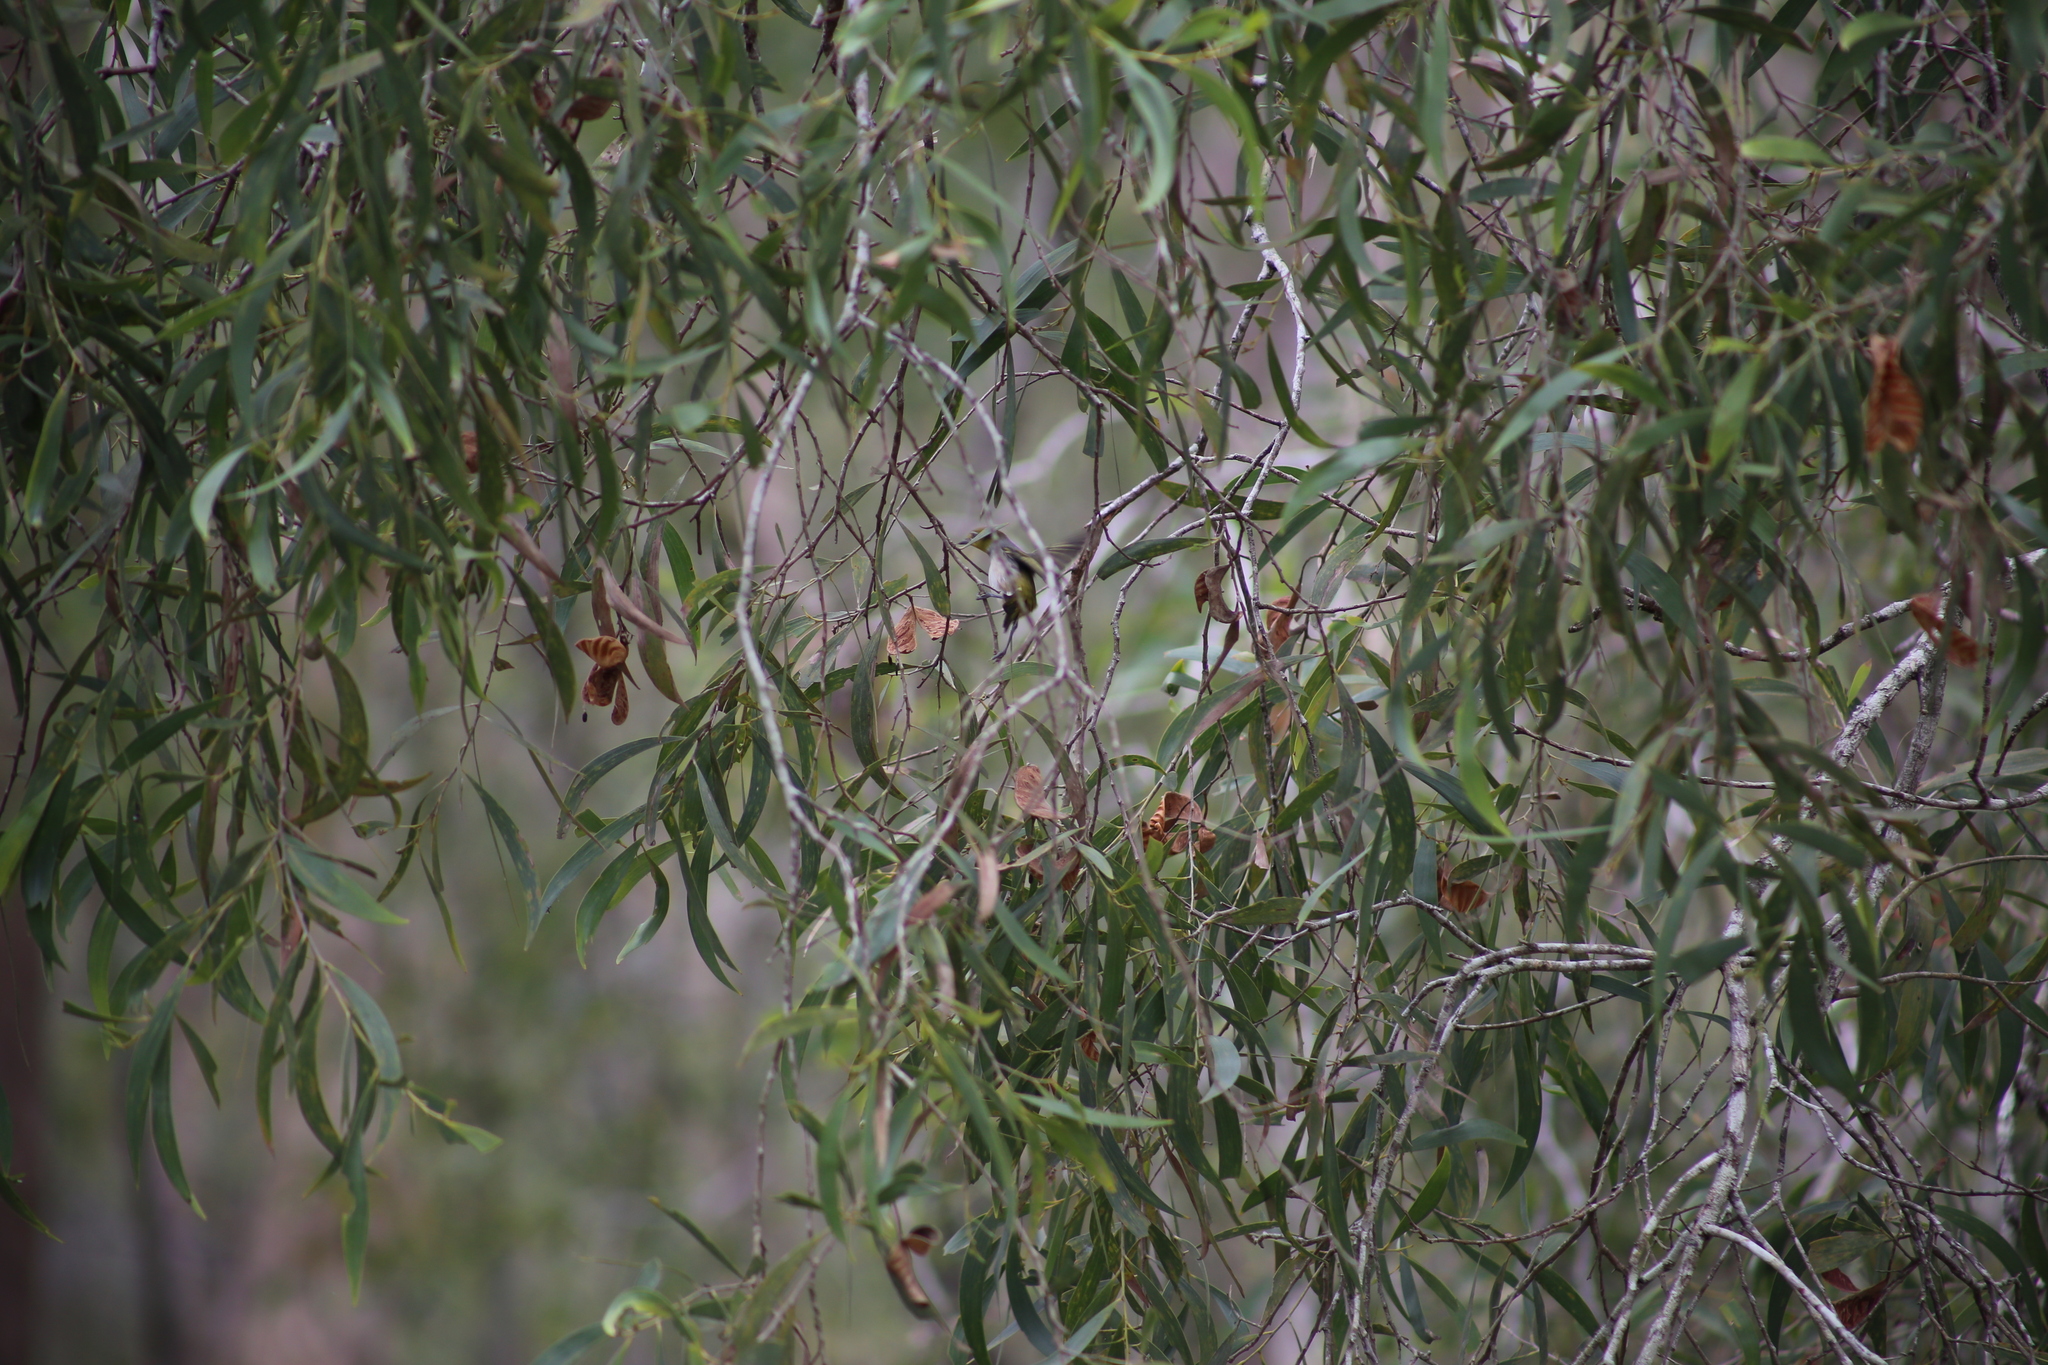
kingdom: Animalia
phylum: Chordata
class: Aves
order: Passeriformes
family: Zosteropidae
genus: Zosterops
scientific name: Zosterops lateralis
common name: Silvereye
